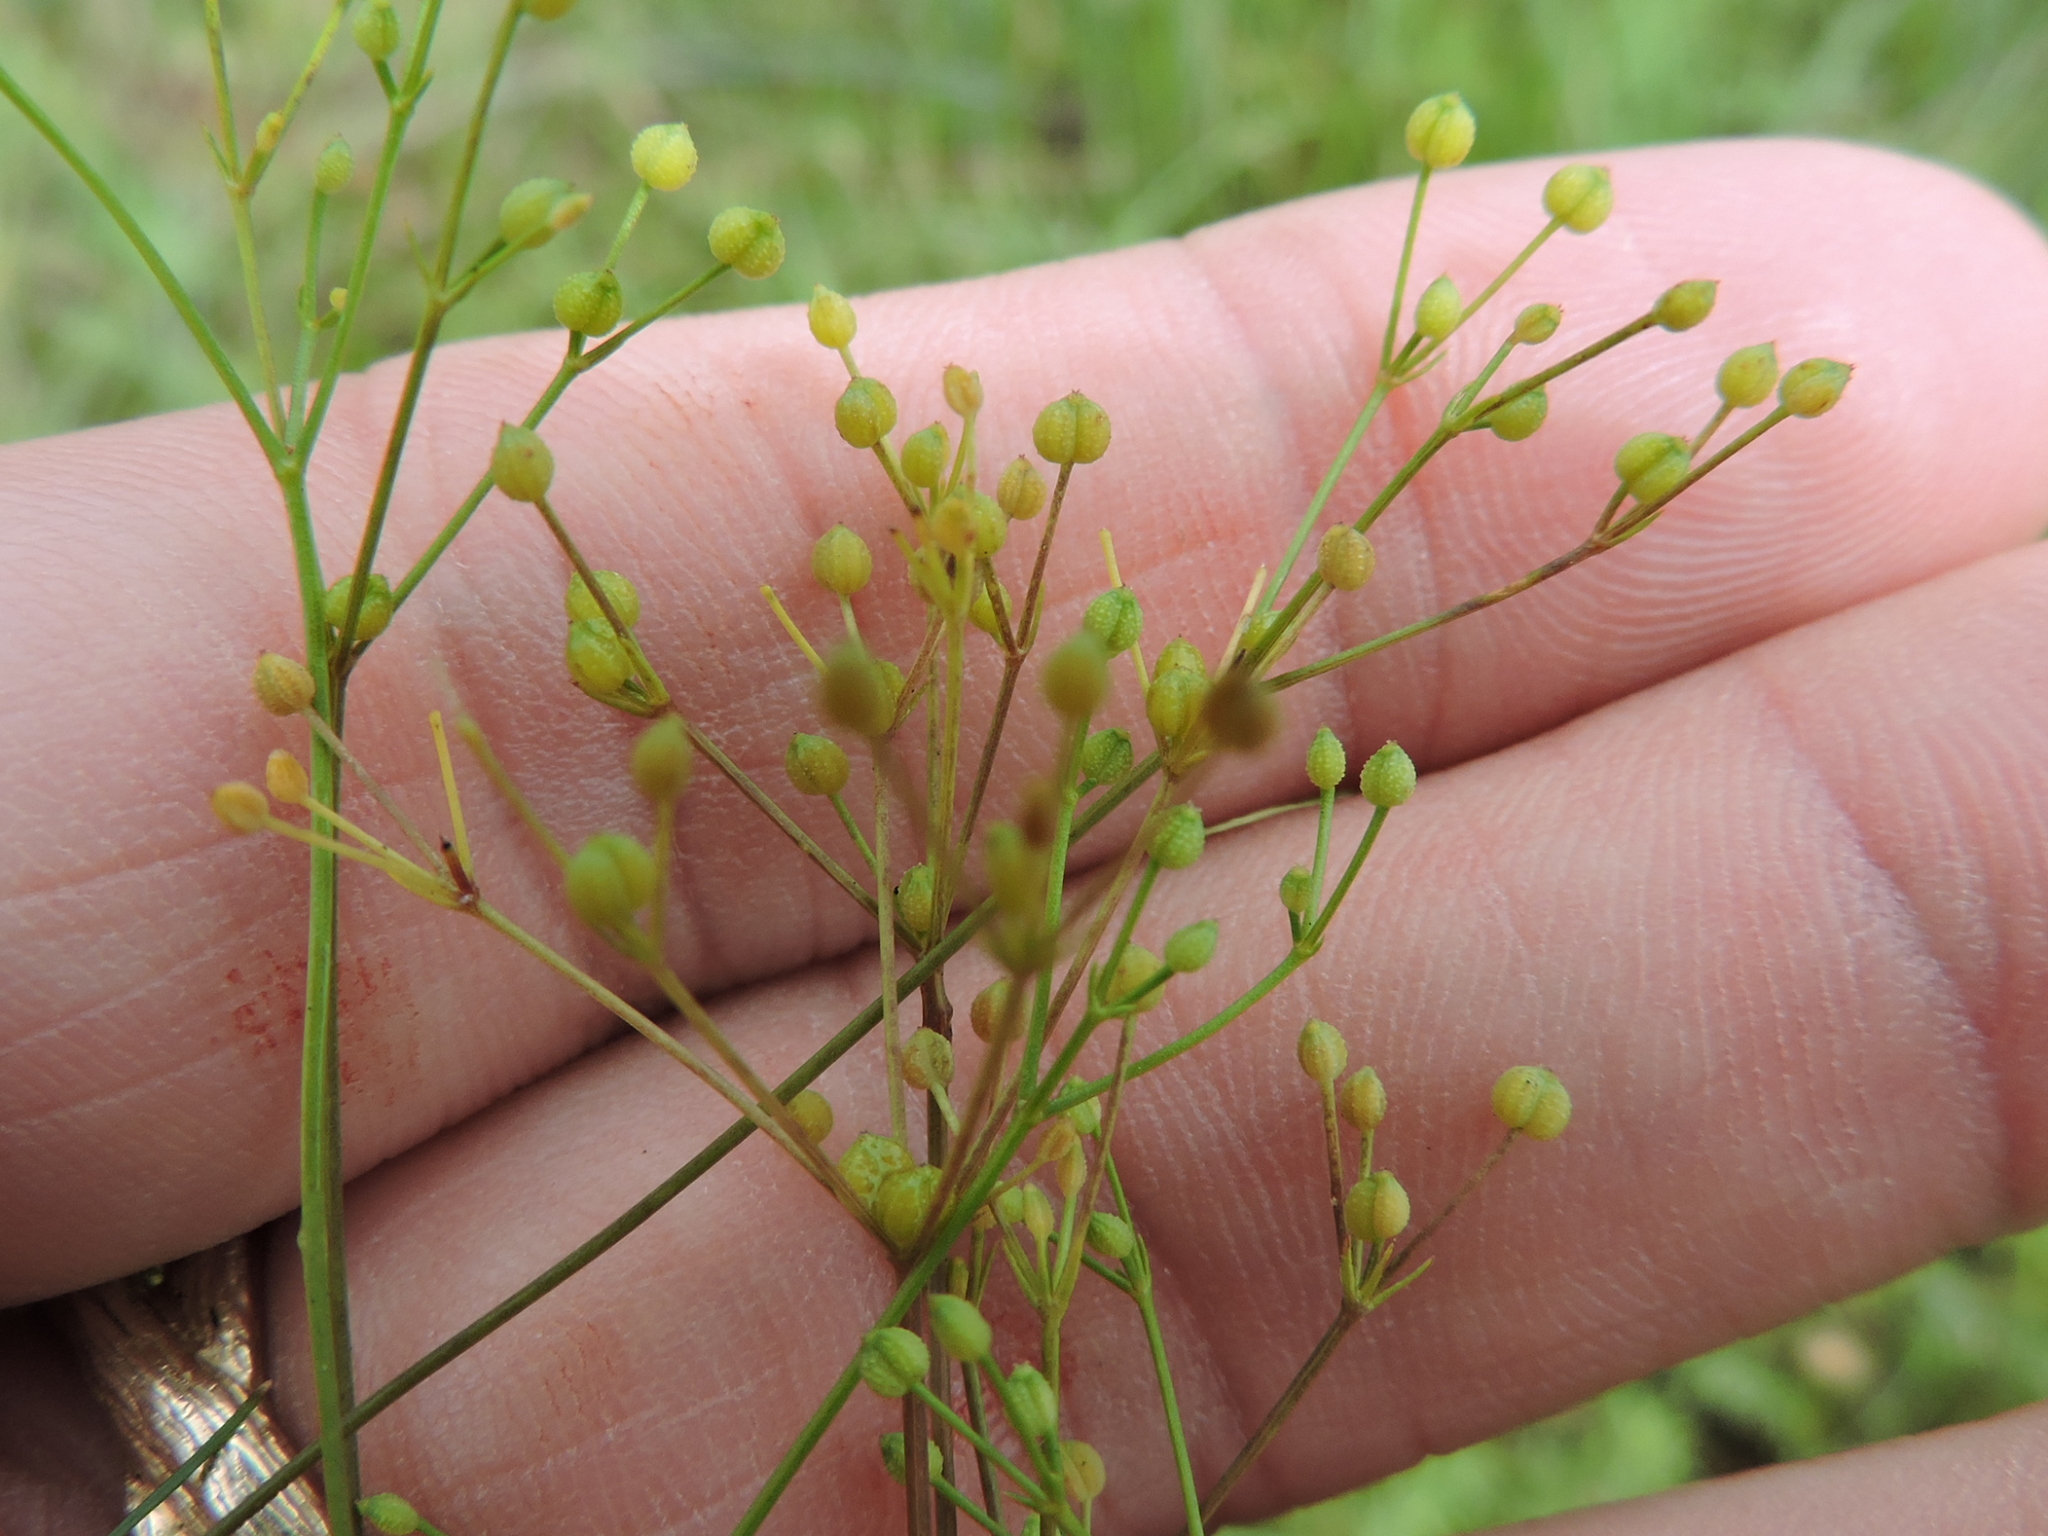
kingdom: Plantae
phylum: Tracheophyta
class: Magnoliopsida
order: Apiales
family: Apiaceae
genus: Spermolepis
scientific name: Spermolepis echinata
